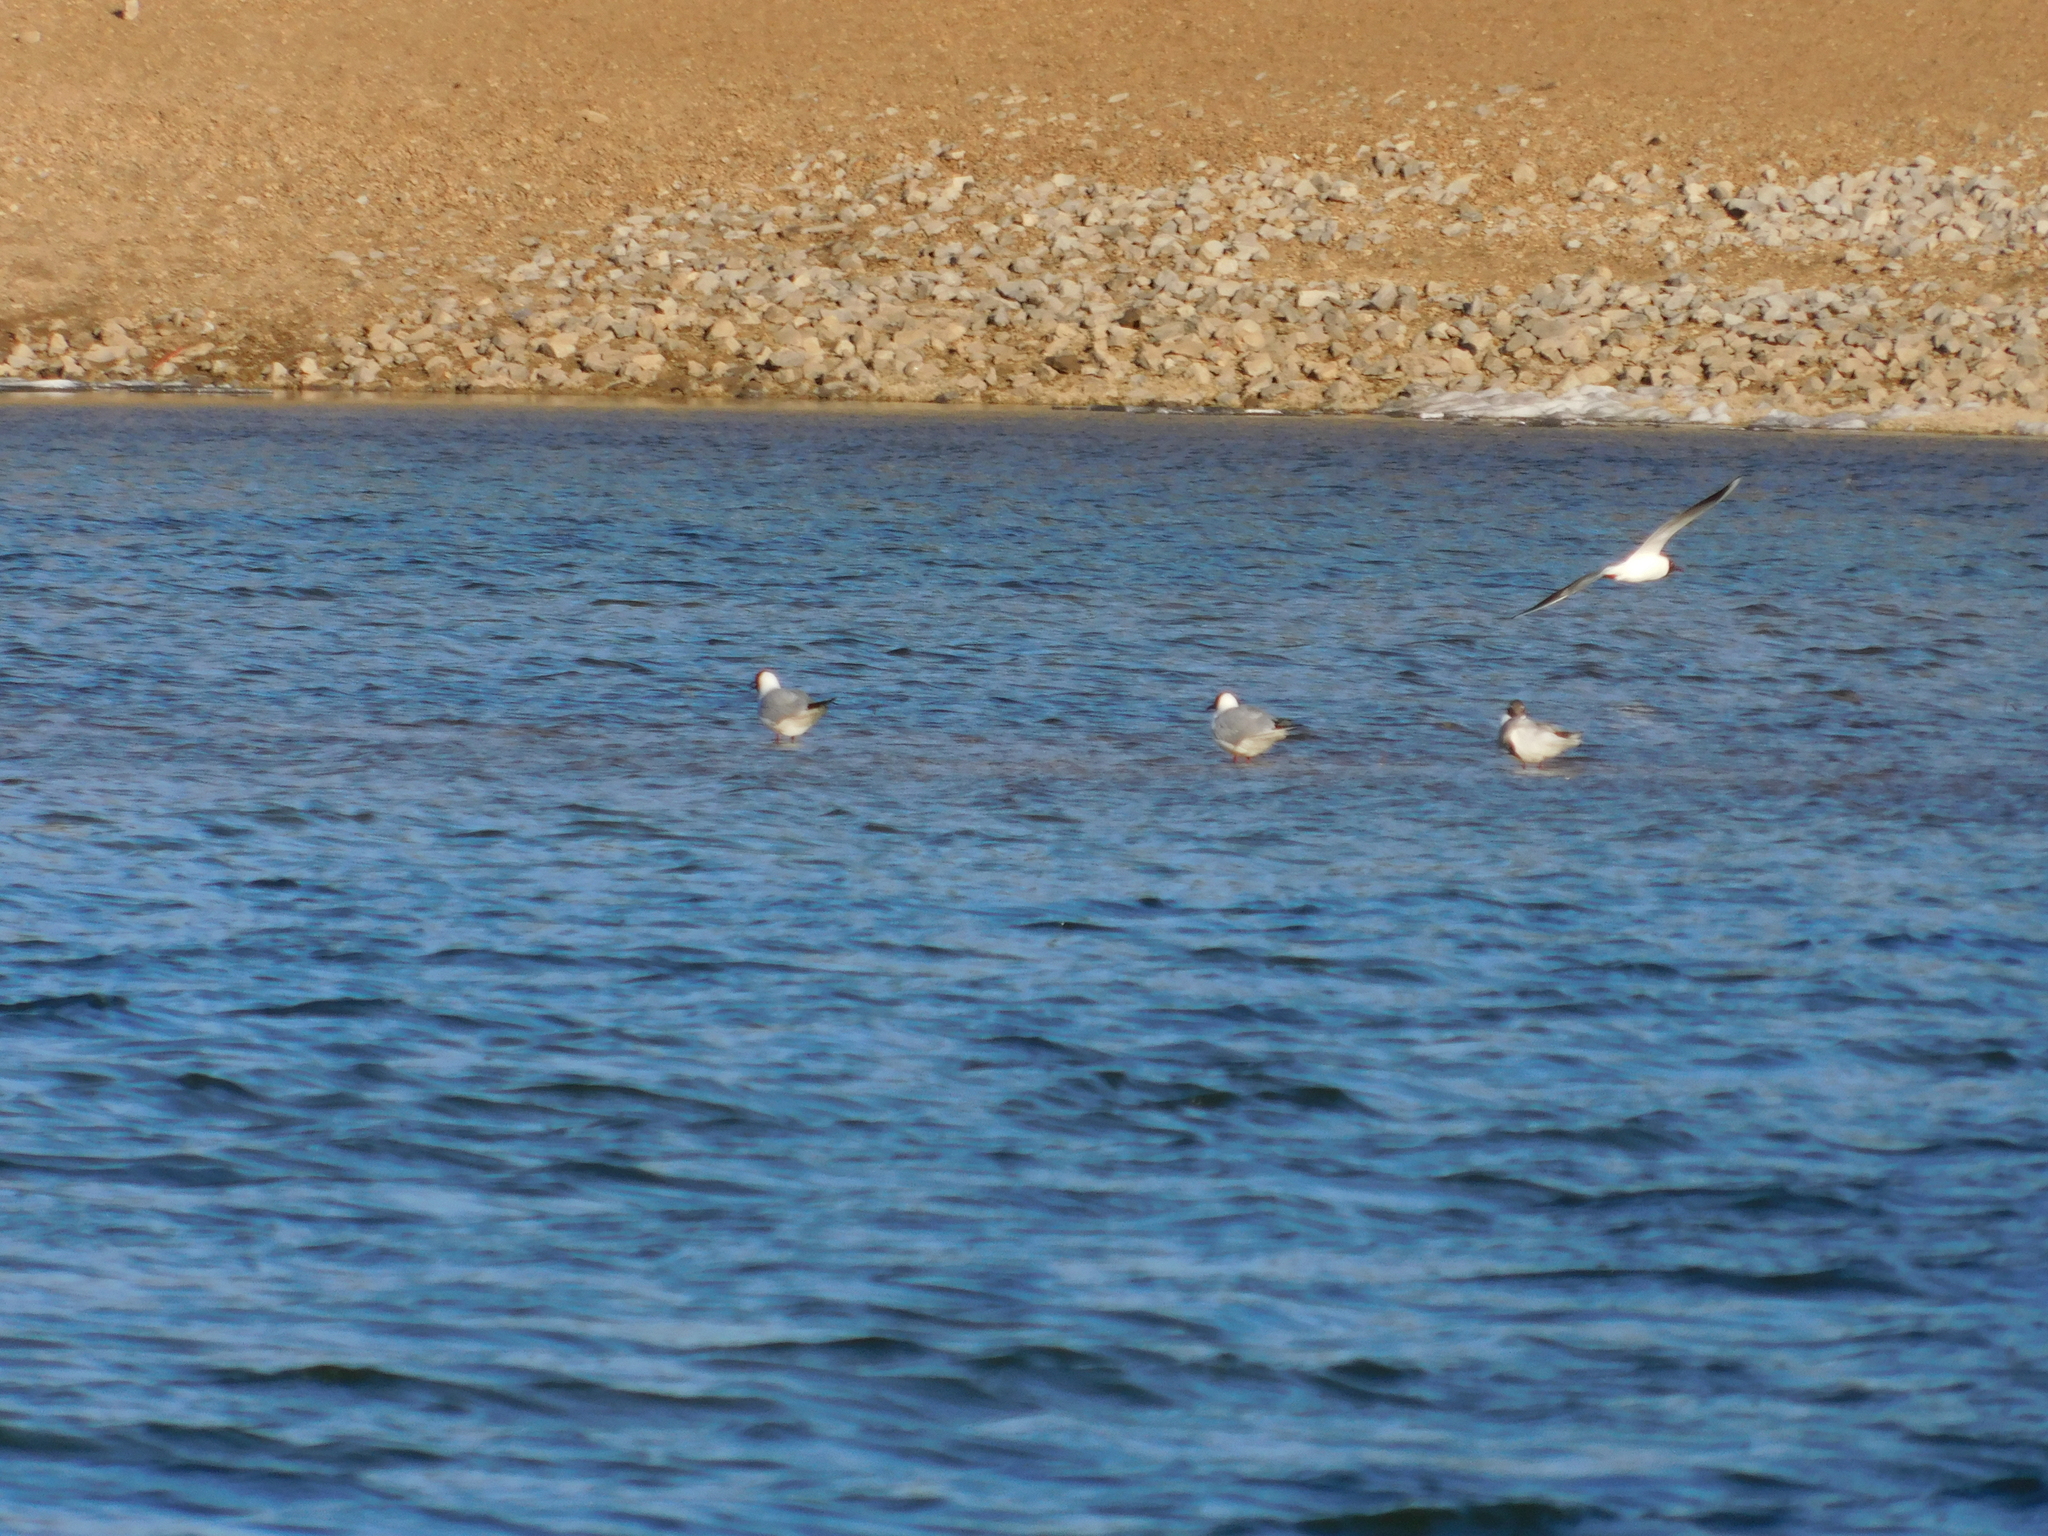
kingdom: Animalia
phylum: Chordata
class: Aves
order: Charadriiformes
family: Laridae
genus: Chroicocephalus
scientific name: Chroicocephalus ridibundus
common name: Black-headed gull
